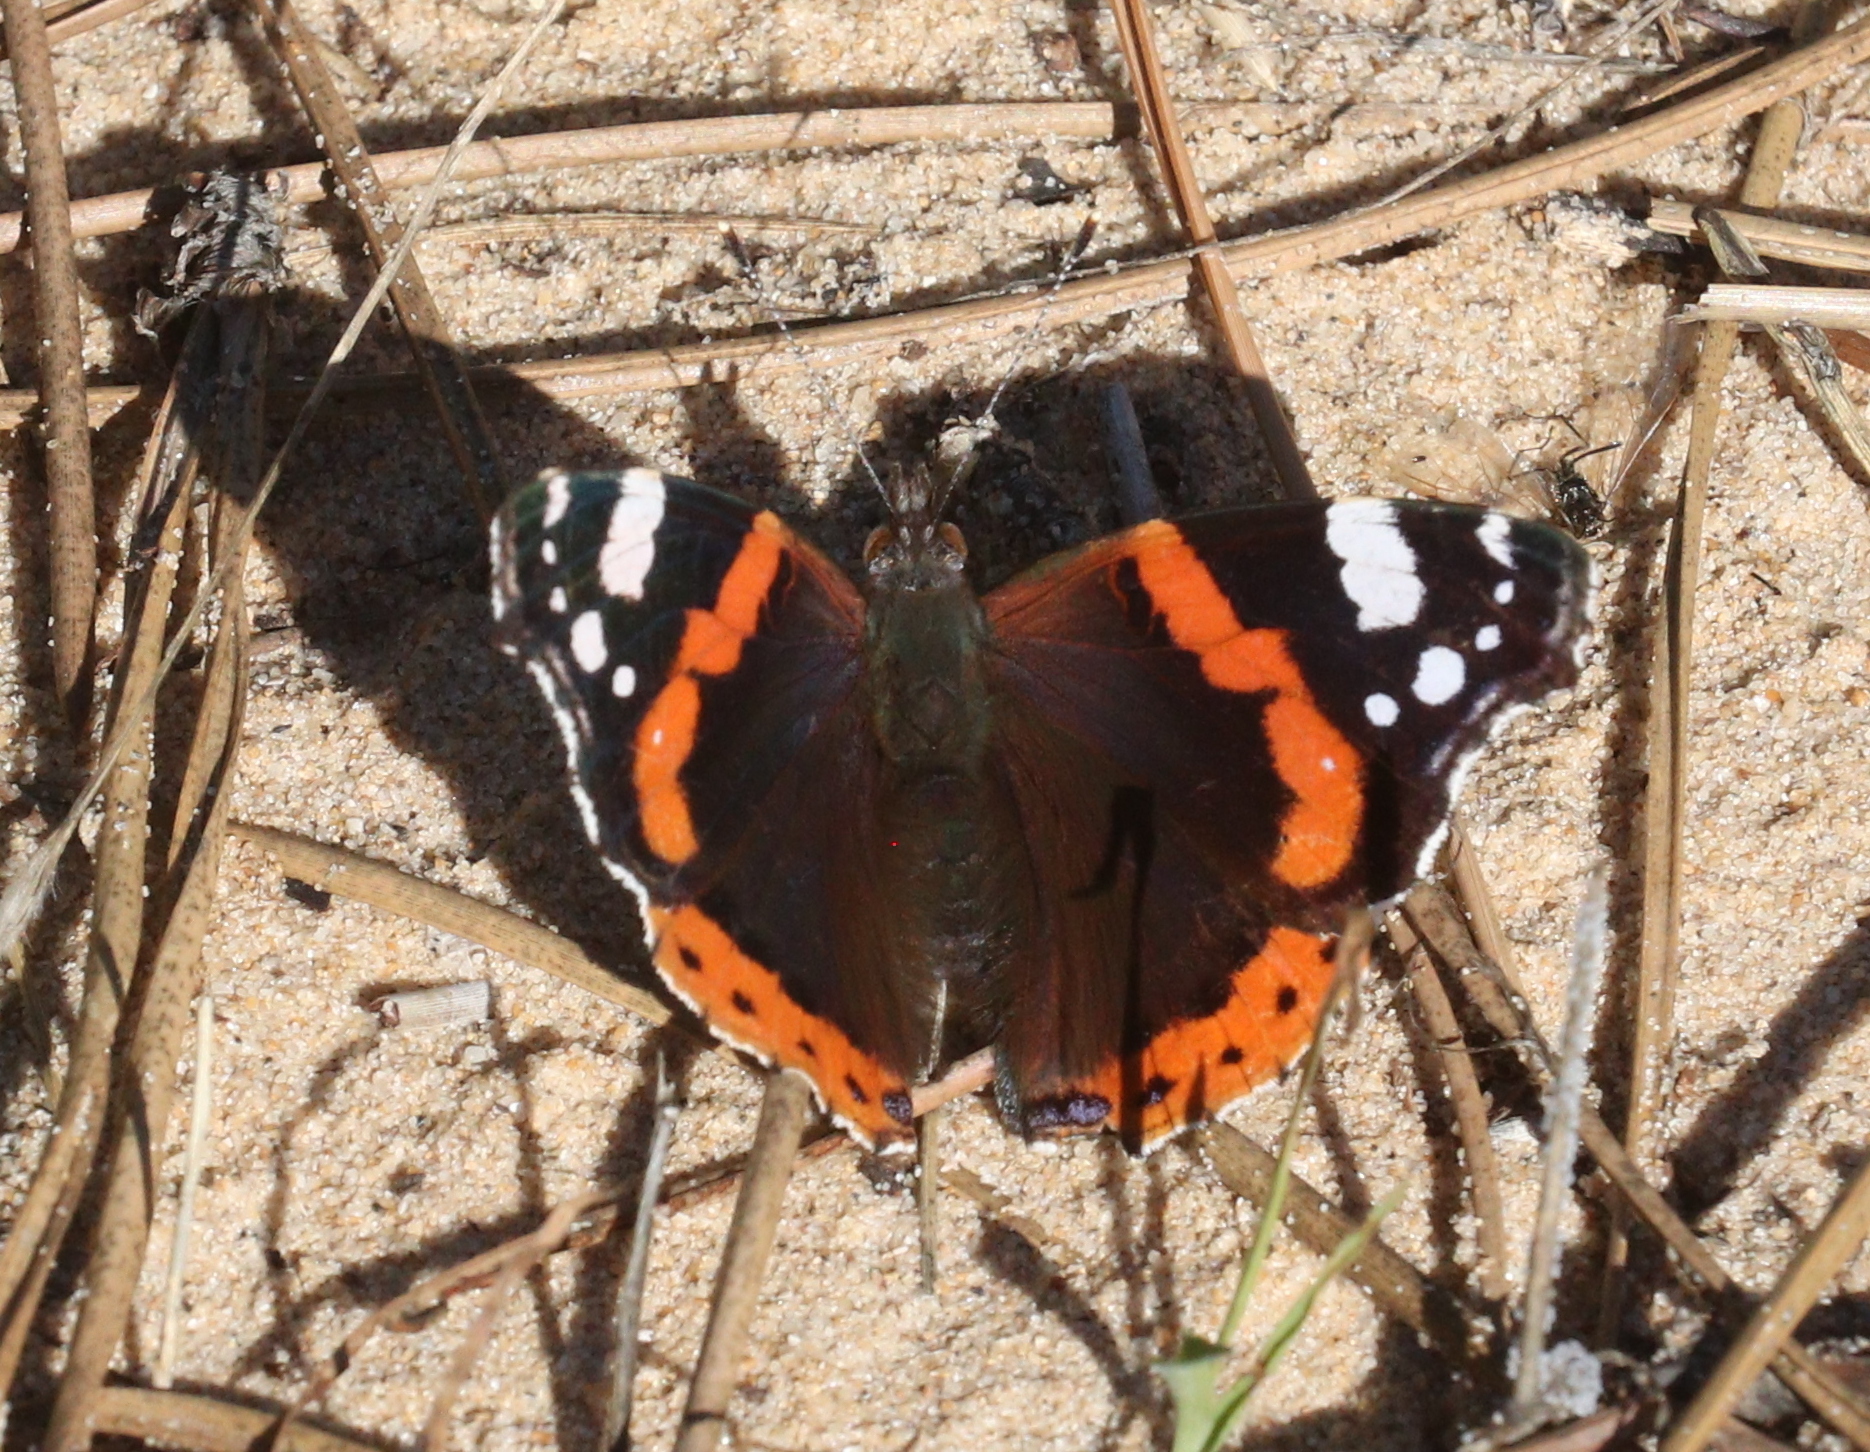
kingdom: Animalia
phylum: Arthropoda
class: Insecta
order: Lepidoptera
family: Nymphalidae
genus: Vanessa
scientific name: Vanessa atalanta
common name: Red admiral
